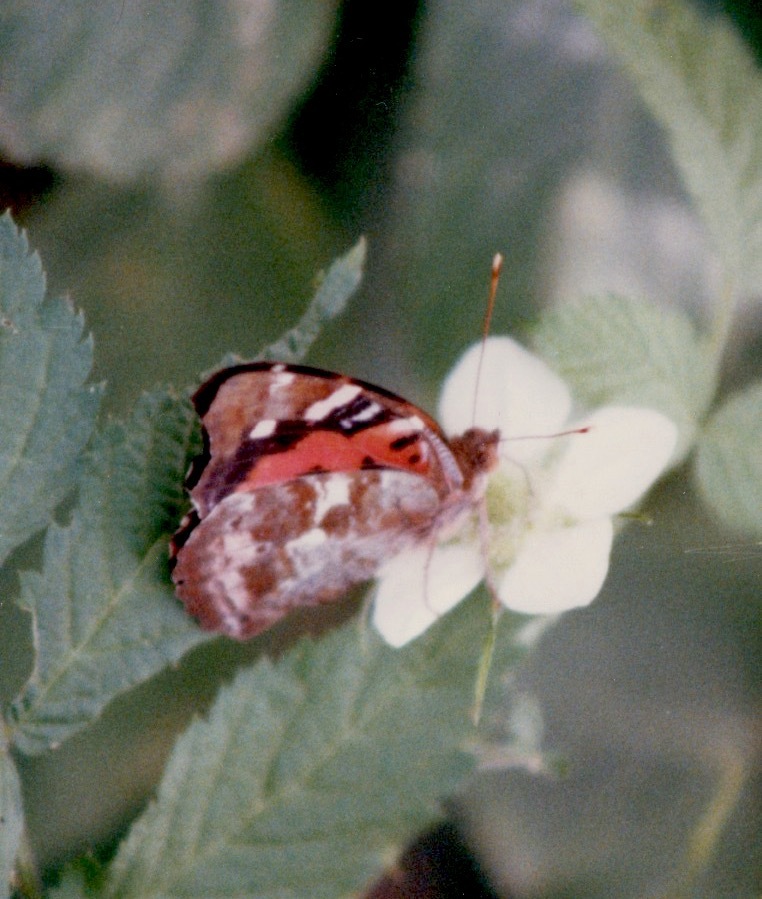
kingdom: Animalia
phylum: Arthropoda
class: Insecta
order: Lepidoptera
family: Nymphalidae
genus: Vanessa
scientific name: Vanessa tameamea
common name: Kamehameha lady
